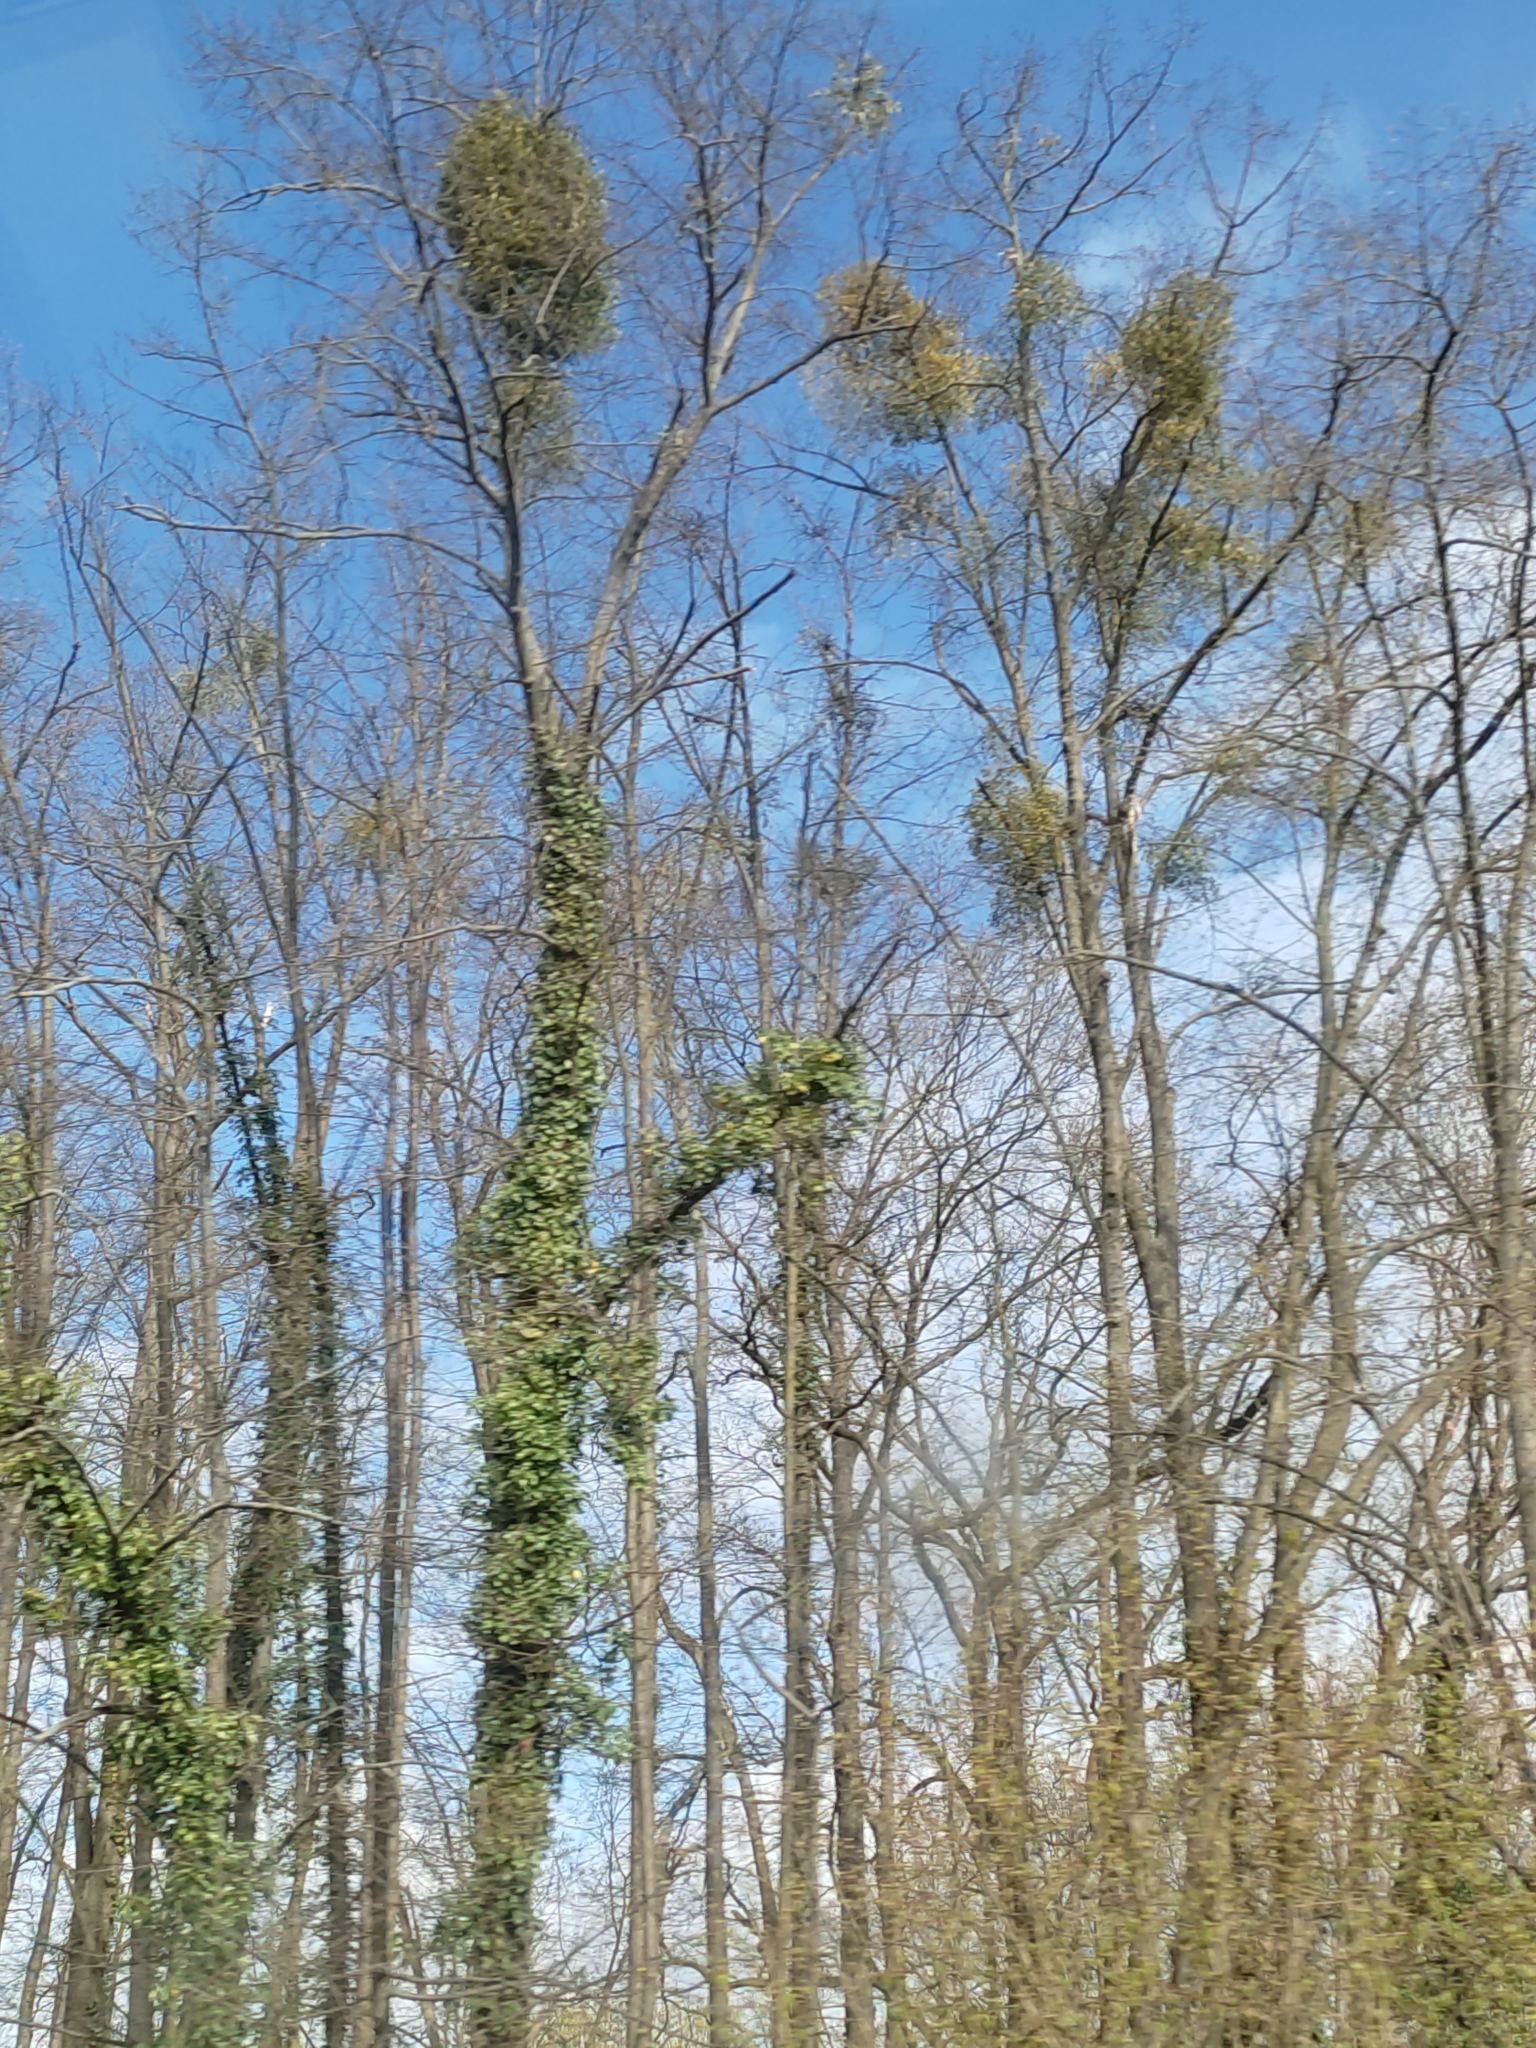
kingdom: Plantae
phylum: Tracheophyta
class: Magnoliopsida
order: Santalales
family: Viscaceae
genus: Viscum
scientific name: Viscum album
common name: Mistletoe
